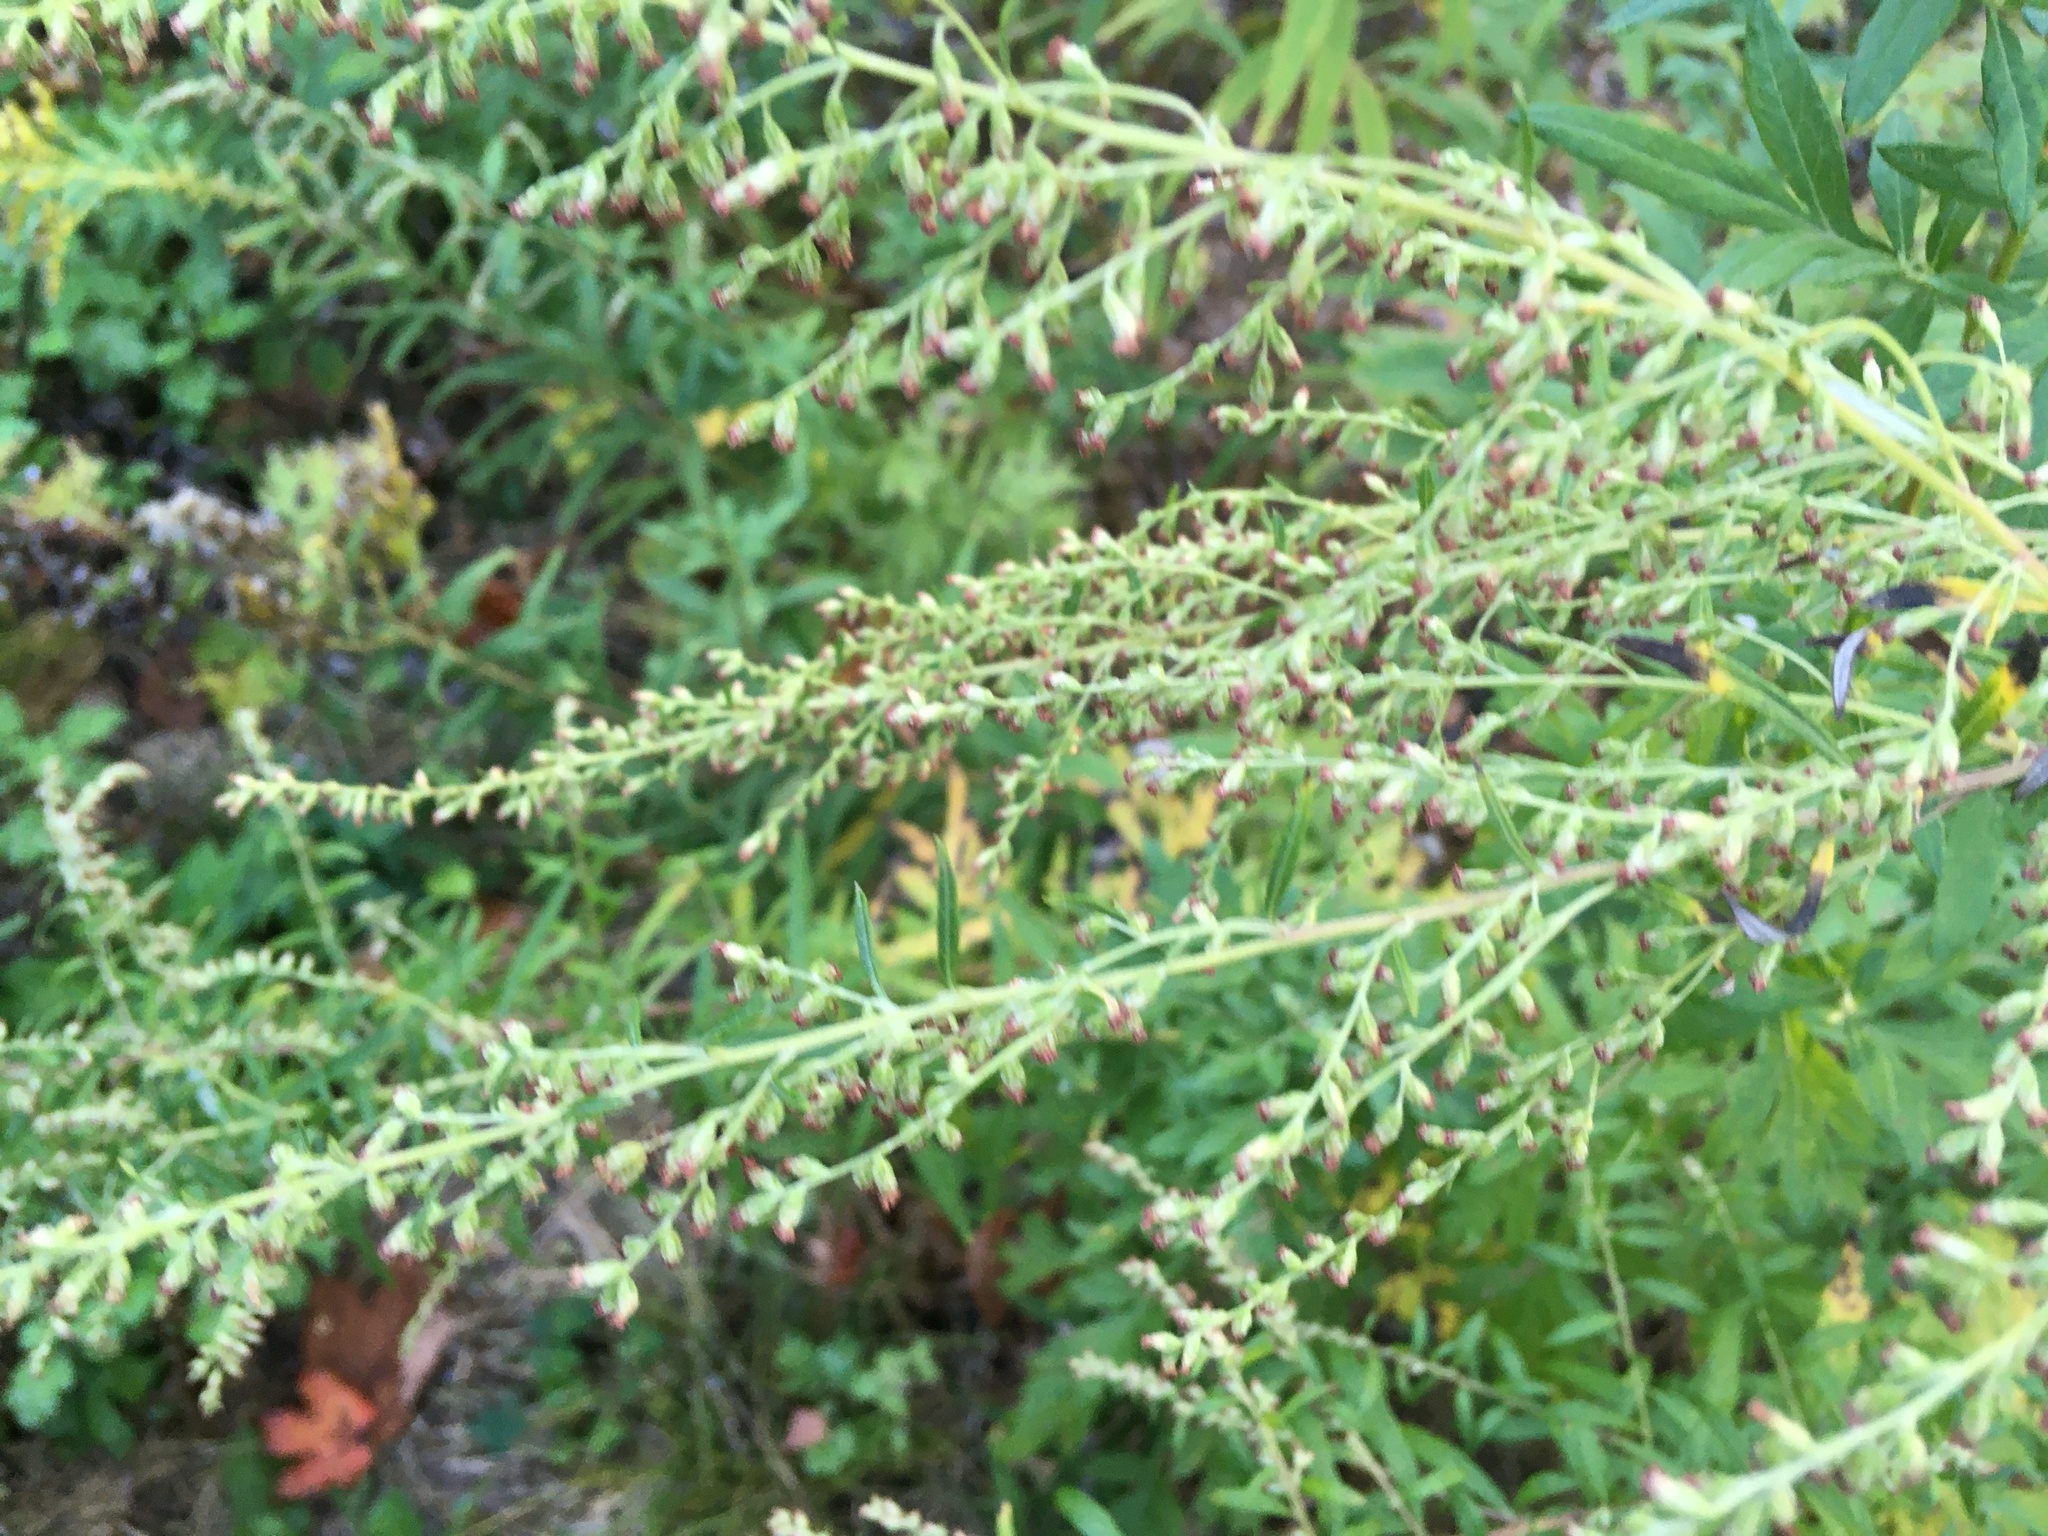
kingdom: Plantae
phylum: Tracheophyta
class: Magnoliopsida
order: Asterales
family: Asteraceae
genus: Artemisia
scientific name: Artemisia vulgaris
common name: Mugwort
